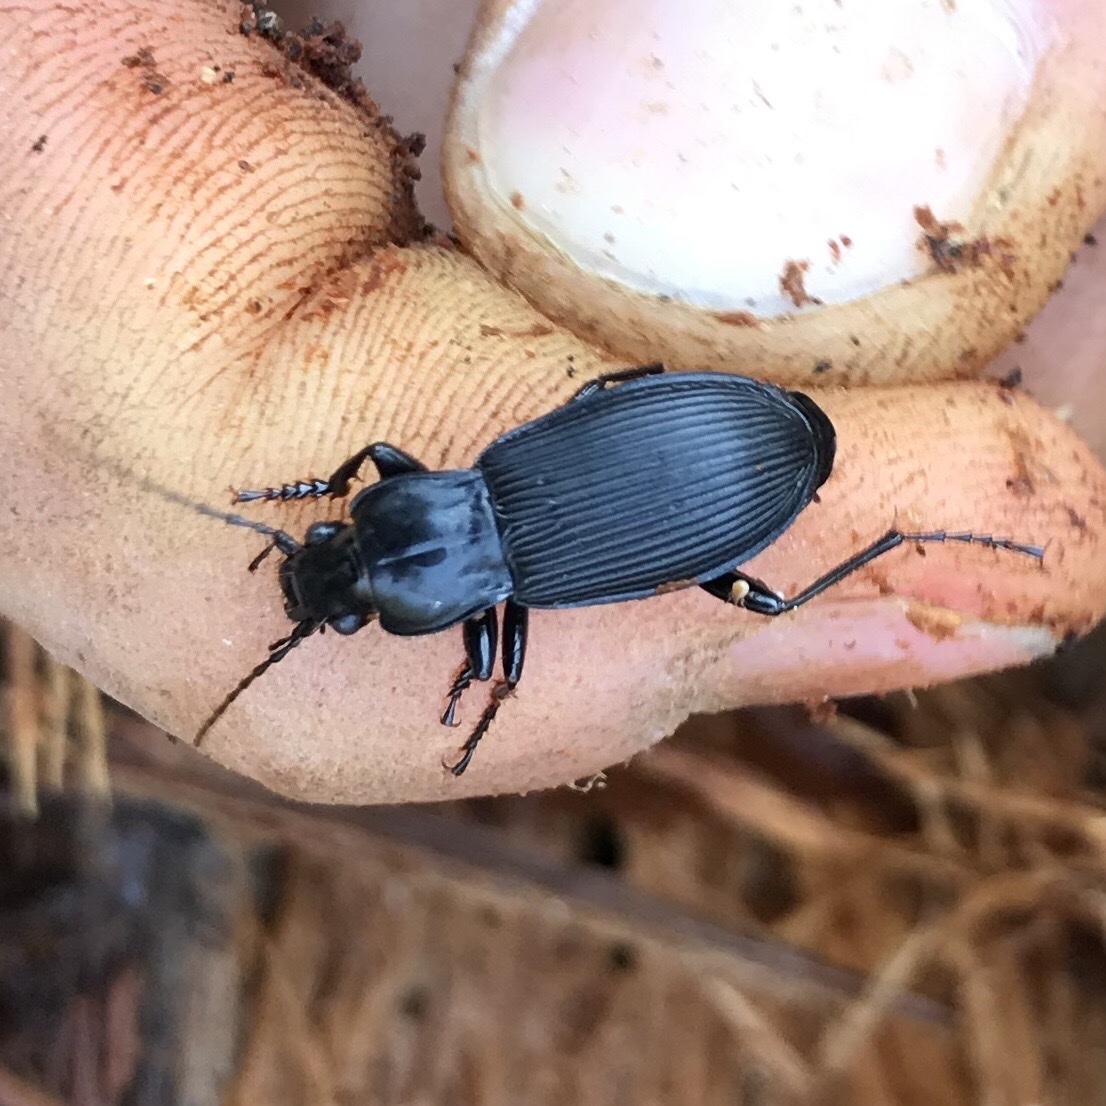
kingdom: Animalia
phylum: Arthropoda
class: Insecta
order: Coleoptera
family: Carabidae
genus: Pterostichus
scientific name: Pterostichus niger
